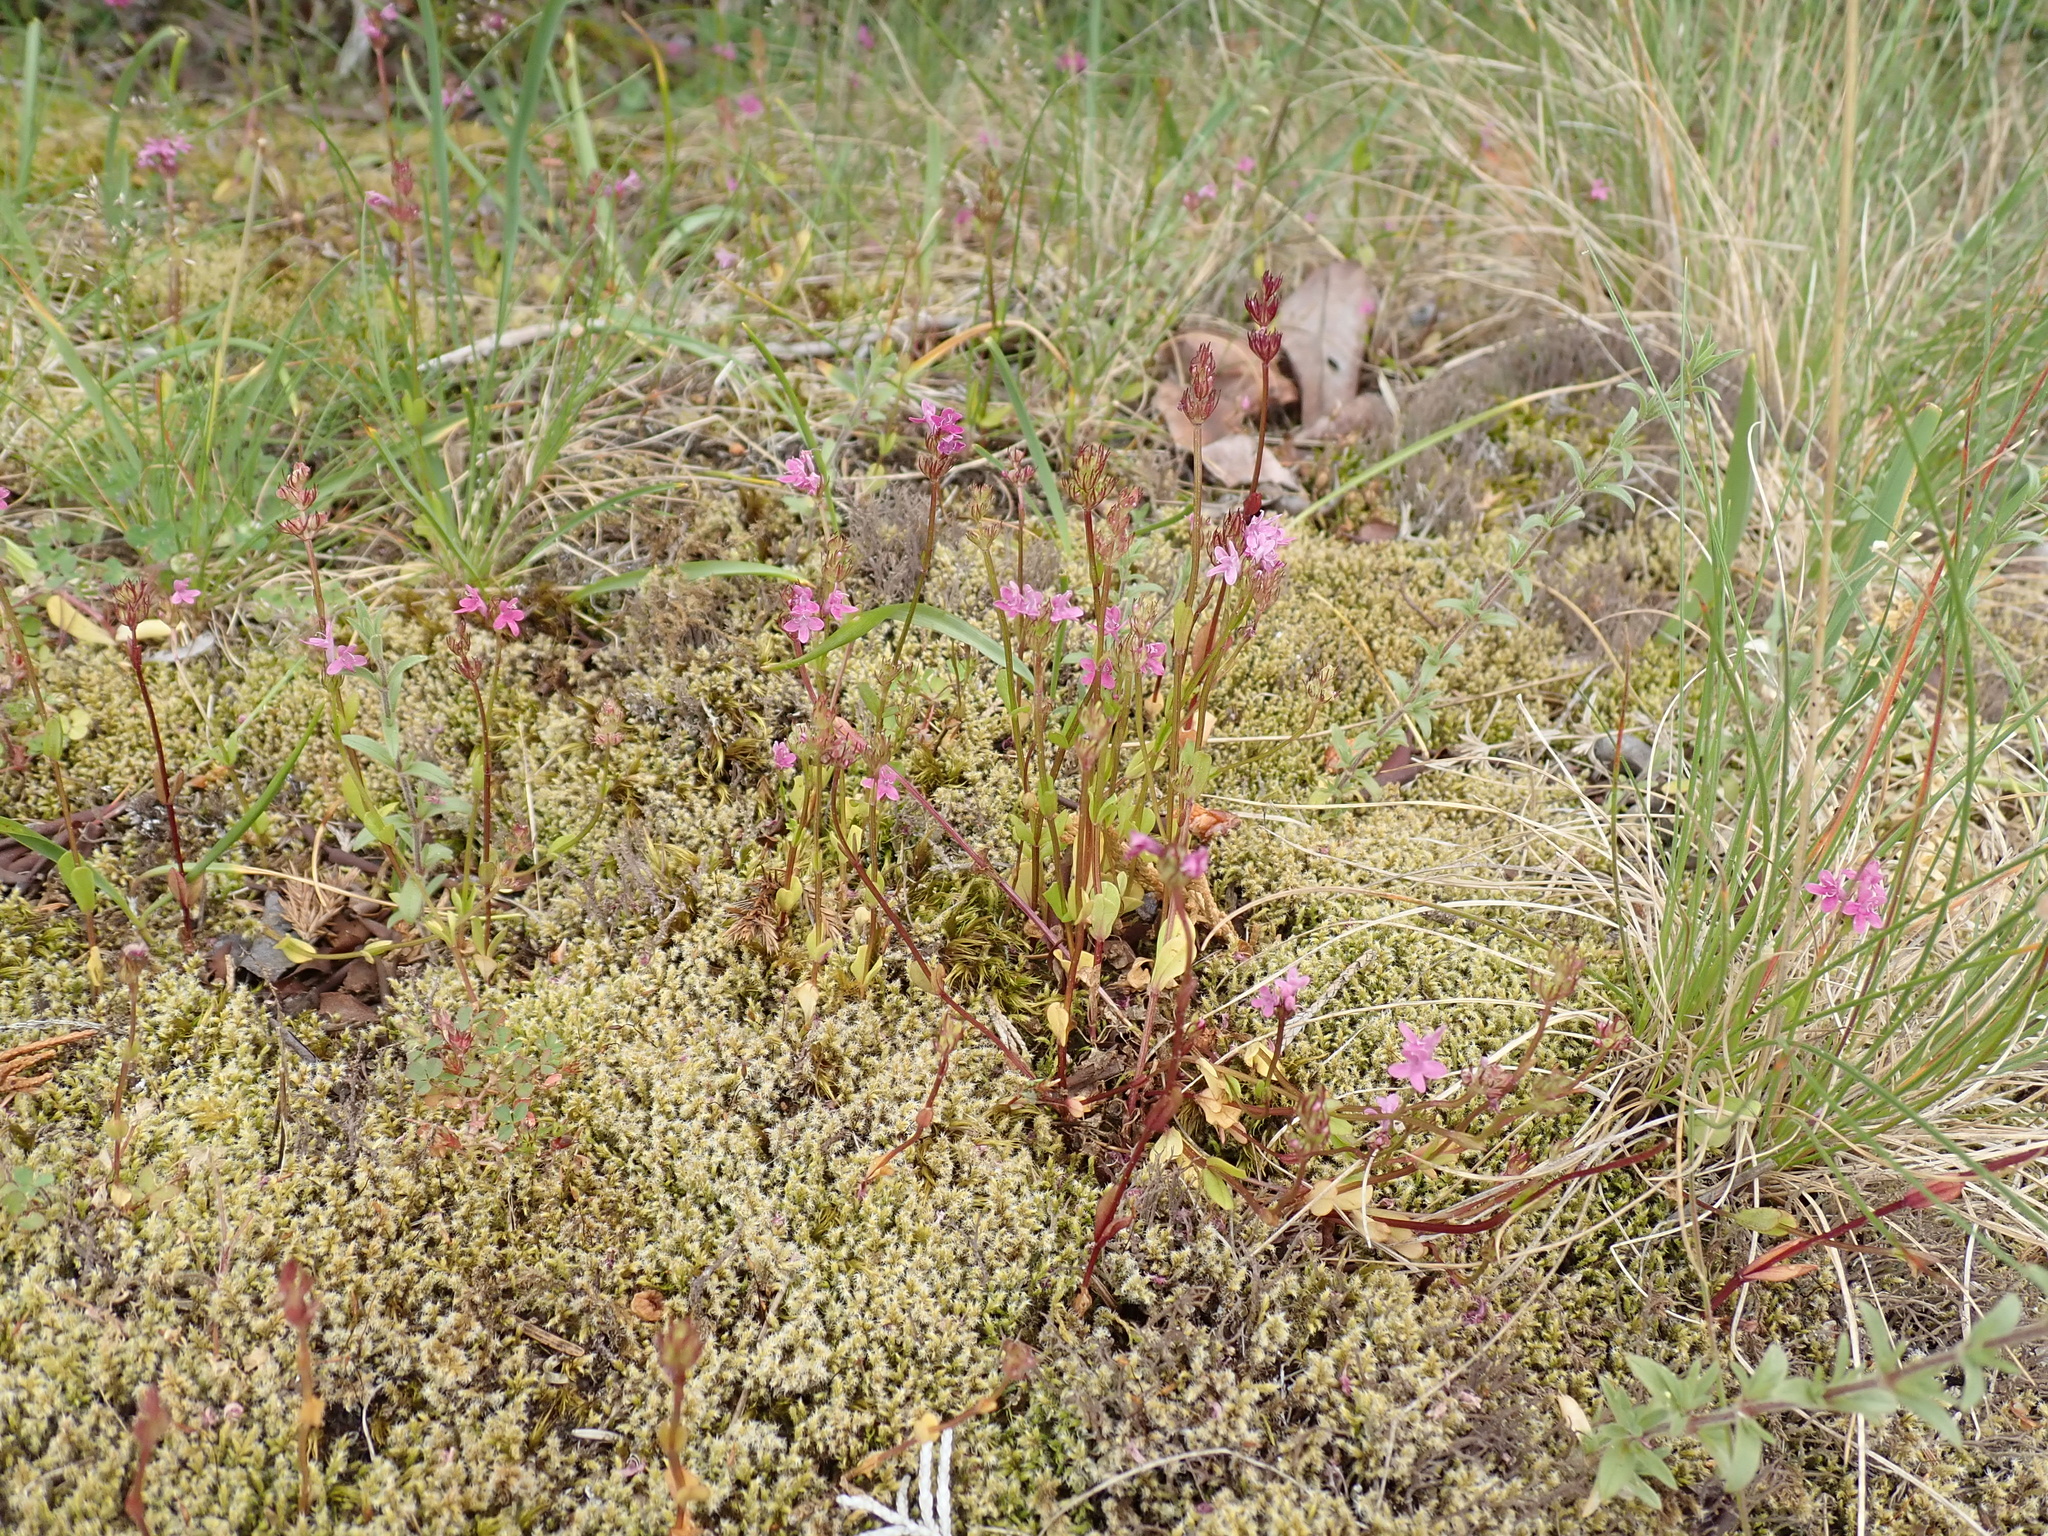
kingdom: Plantae
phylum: Tracheophyta
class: Magnoliopsida
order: Dipsacales
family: Caprifoliaceae
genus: Plectritis
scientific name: Plectritis congesta
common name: Pink plectritis
